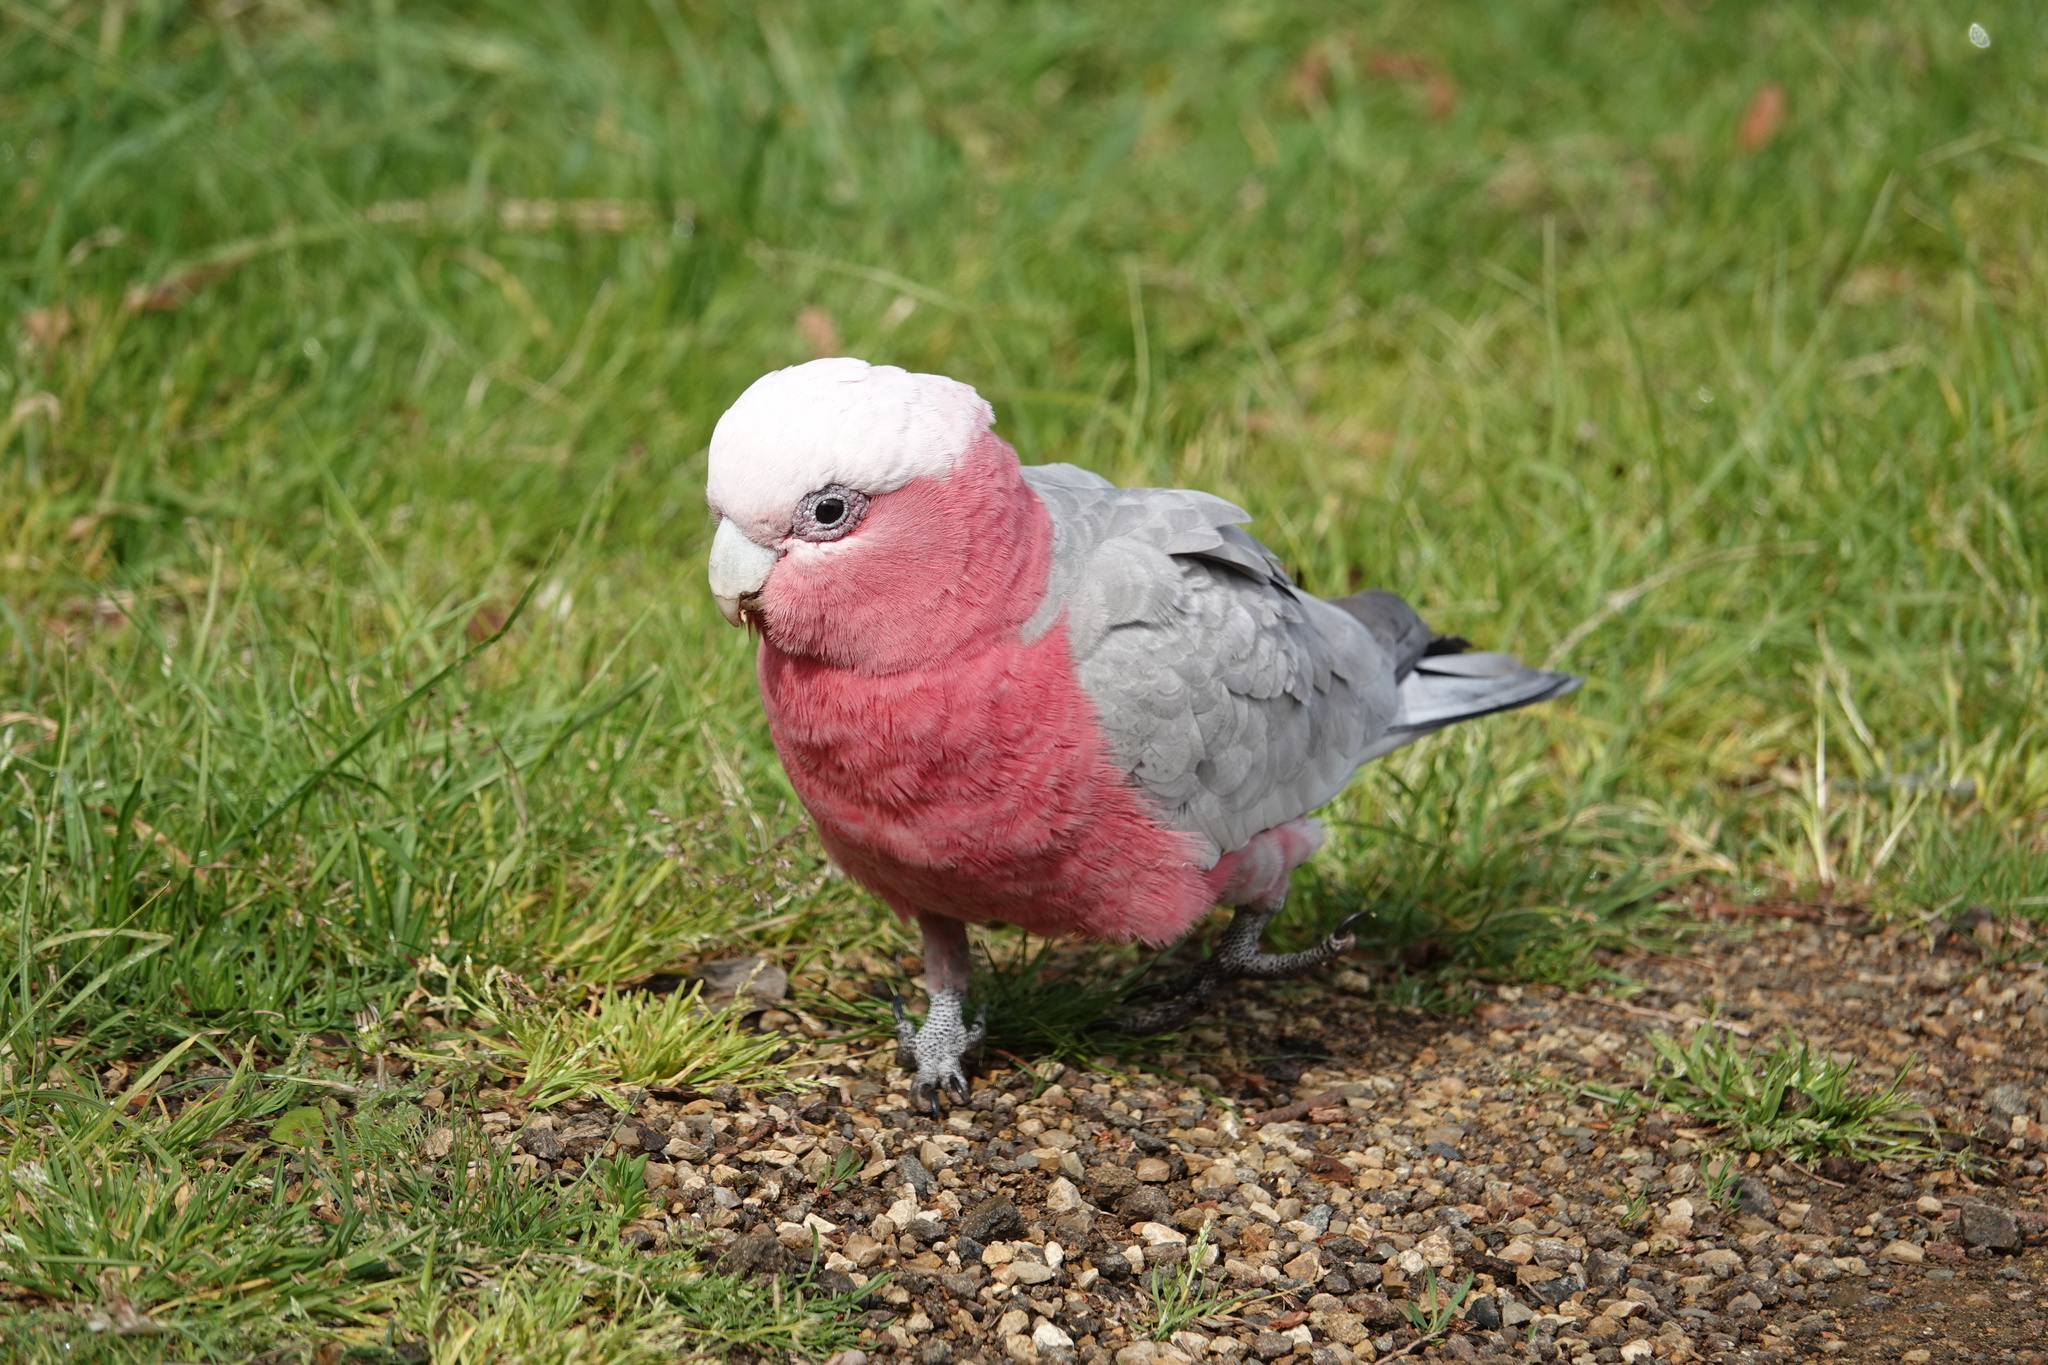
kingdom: Animalia
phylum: Chordata
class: Aves
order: Psittaciformes
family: Psittacidae
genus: Eolophus
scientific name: Eolophus roseicapilla
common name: Galah
